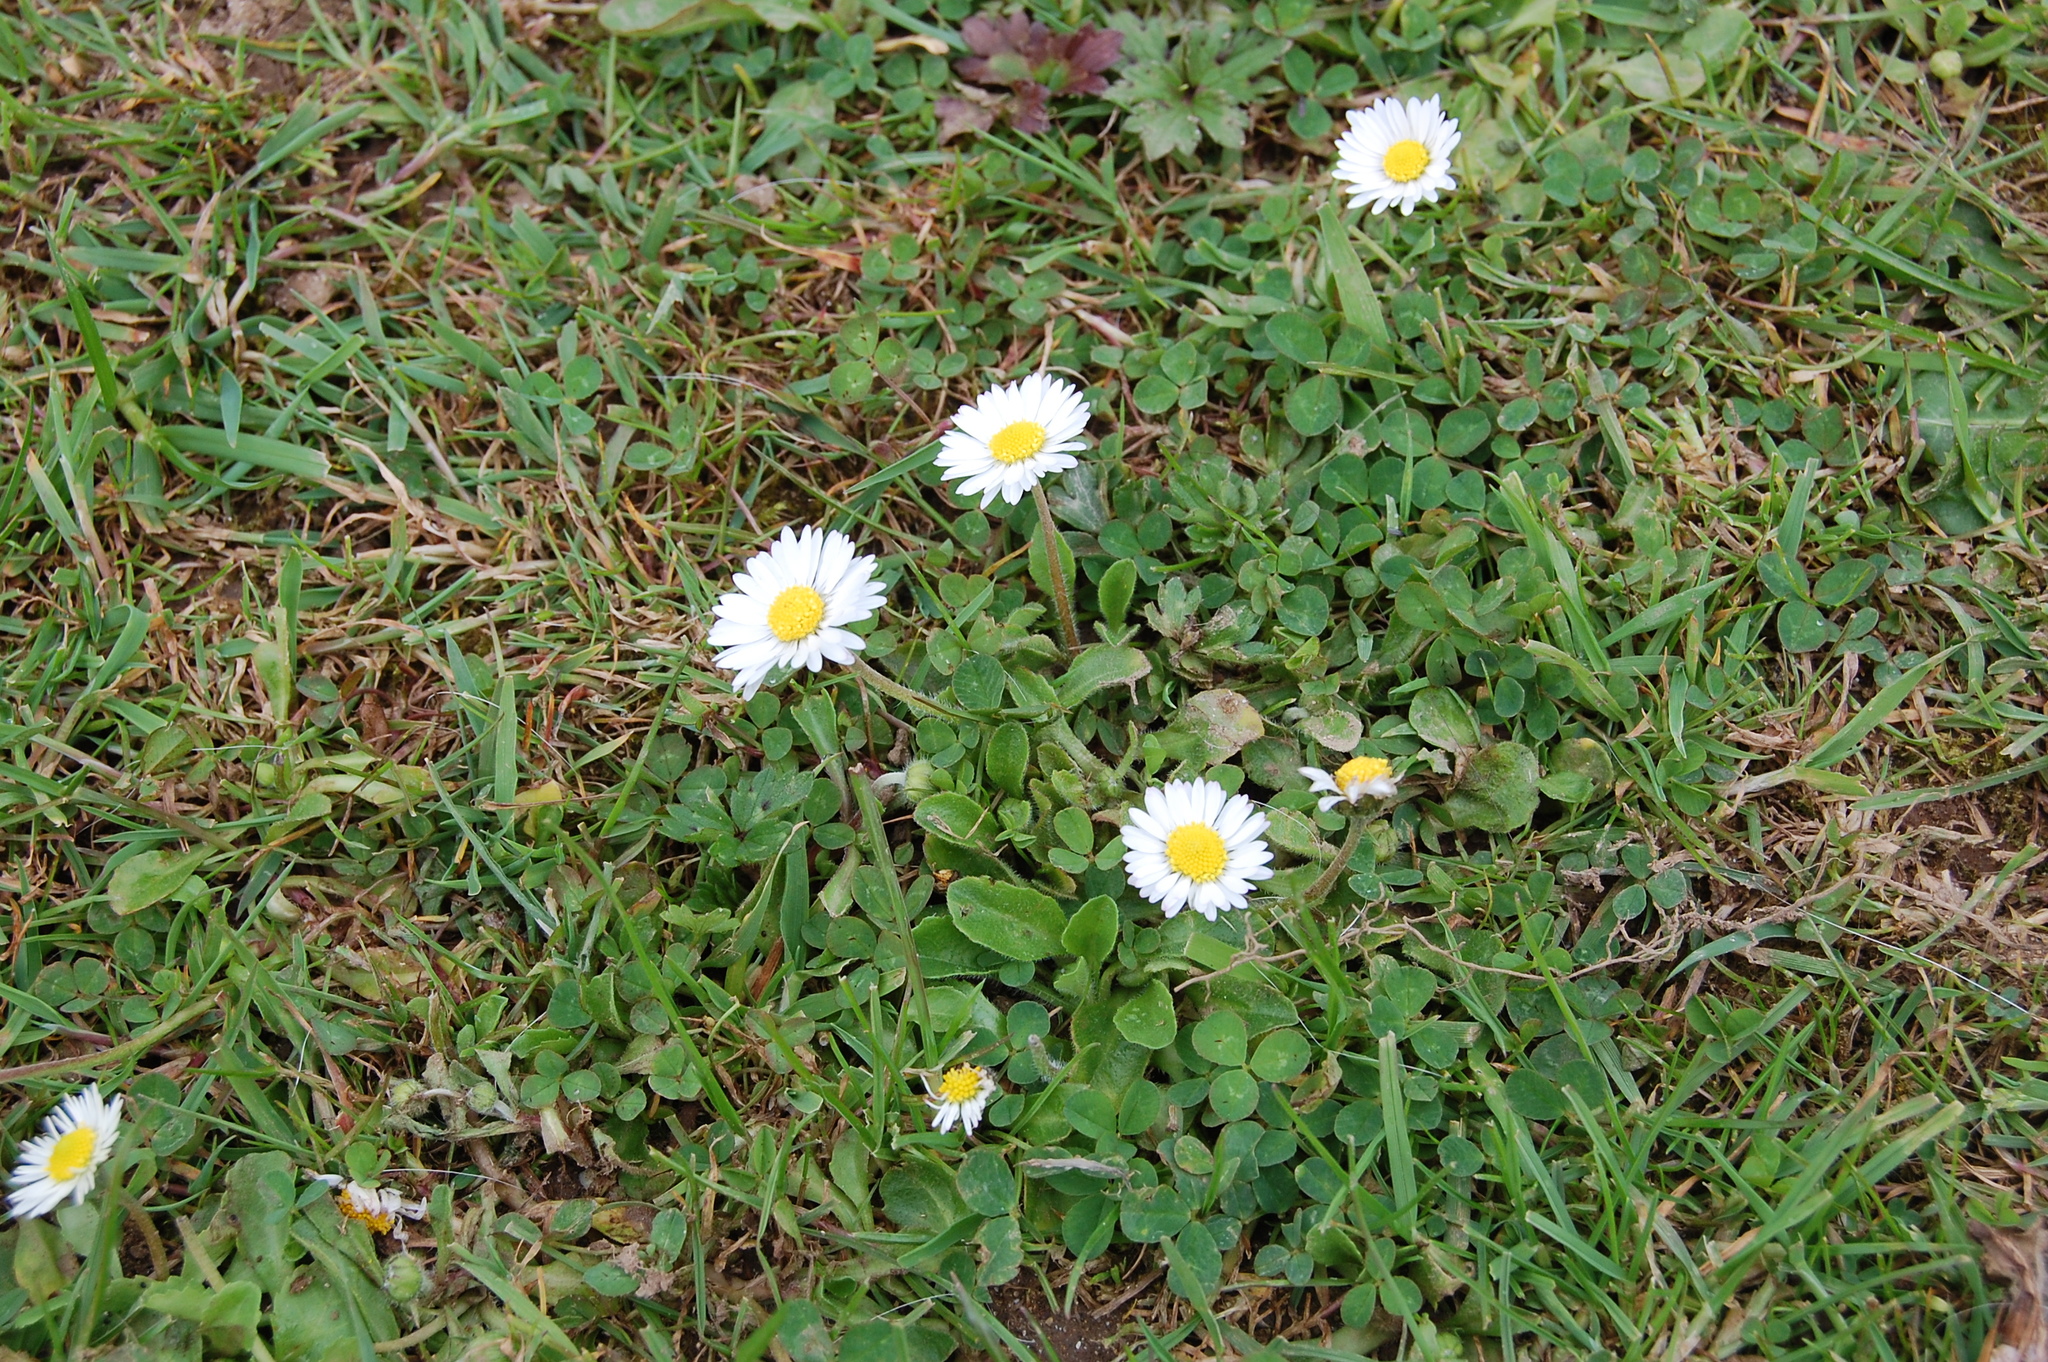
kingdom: Plantae
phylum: Tracheophyta
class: Magnoliopsida
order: Asterales
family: Asteraceae
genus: Bellis
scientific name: Bellis perennis
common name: Lawndaisy
